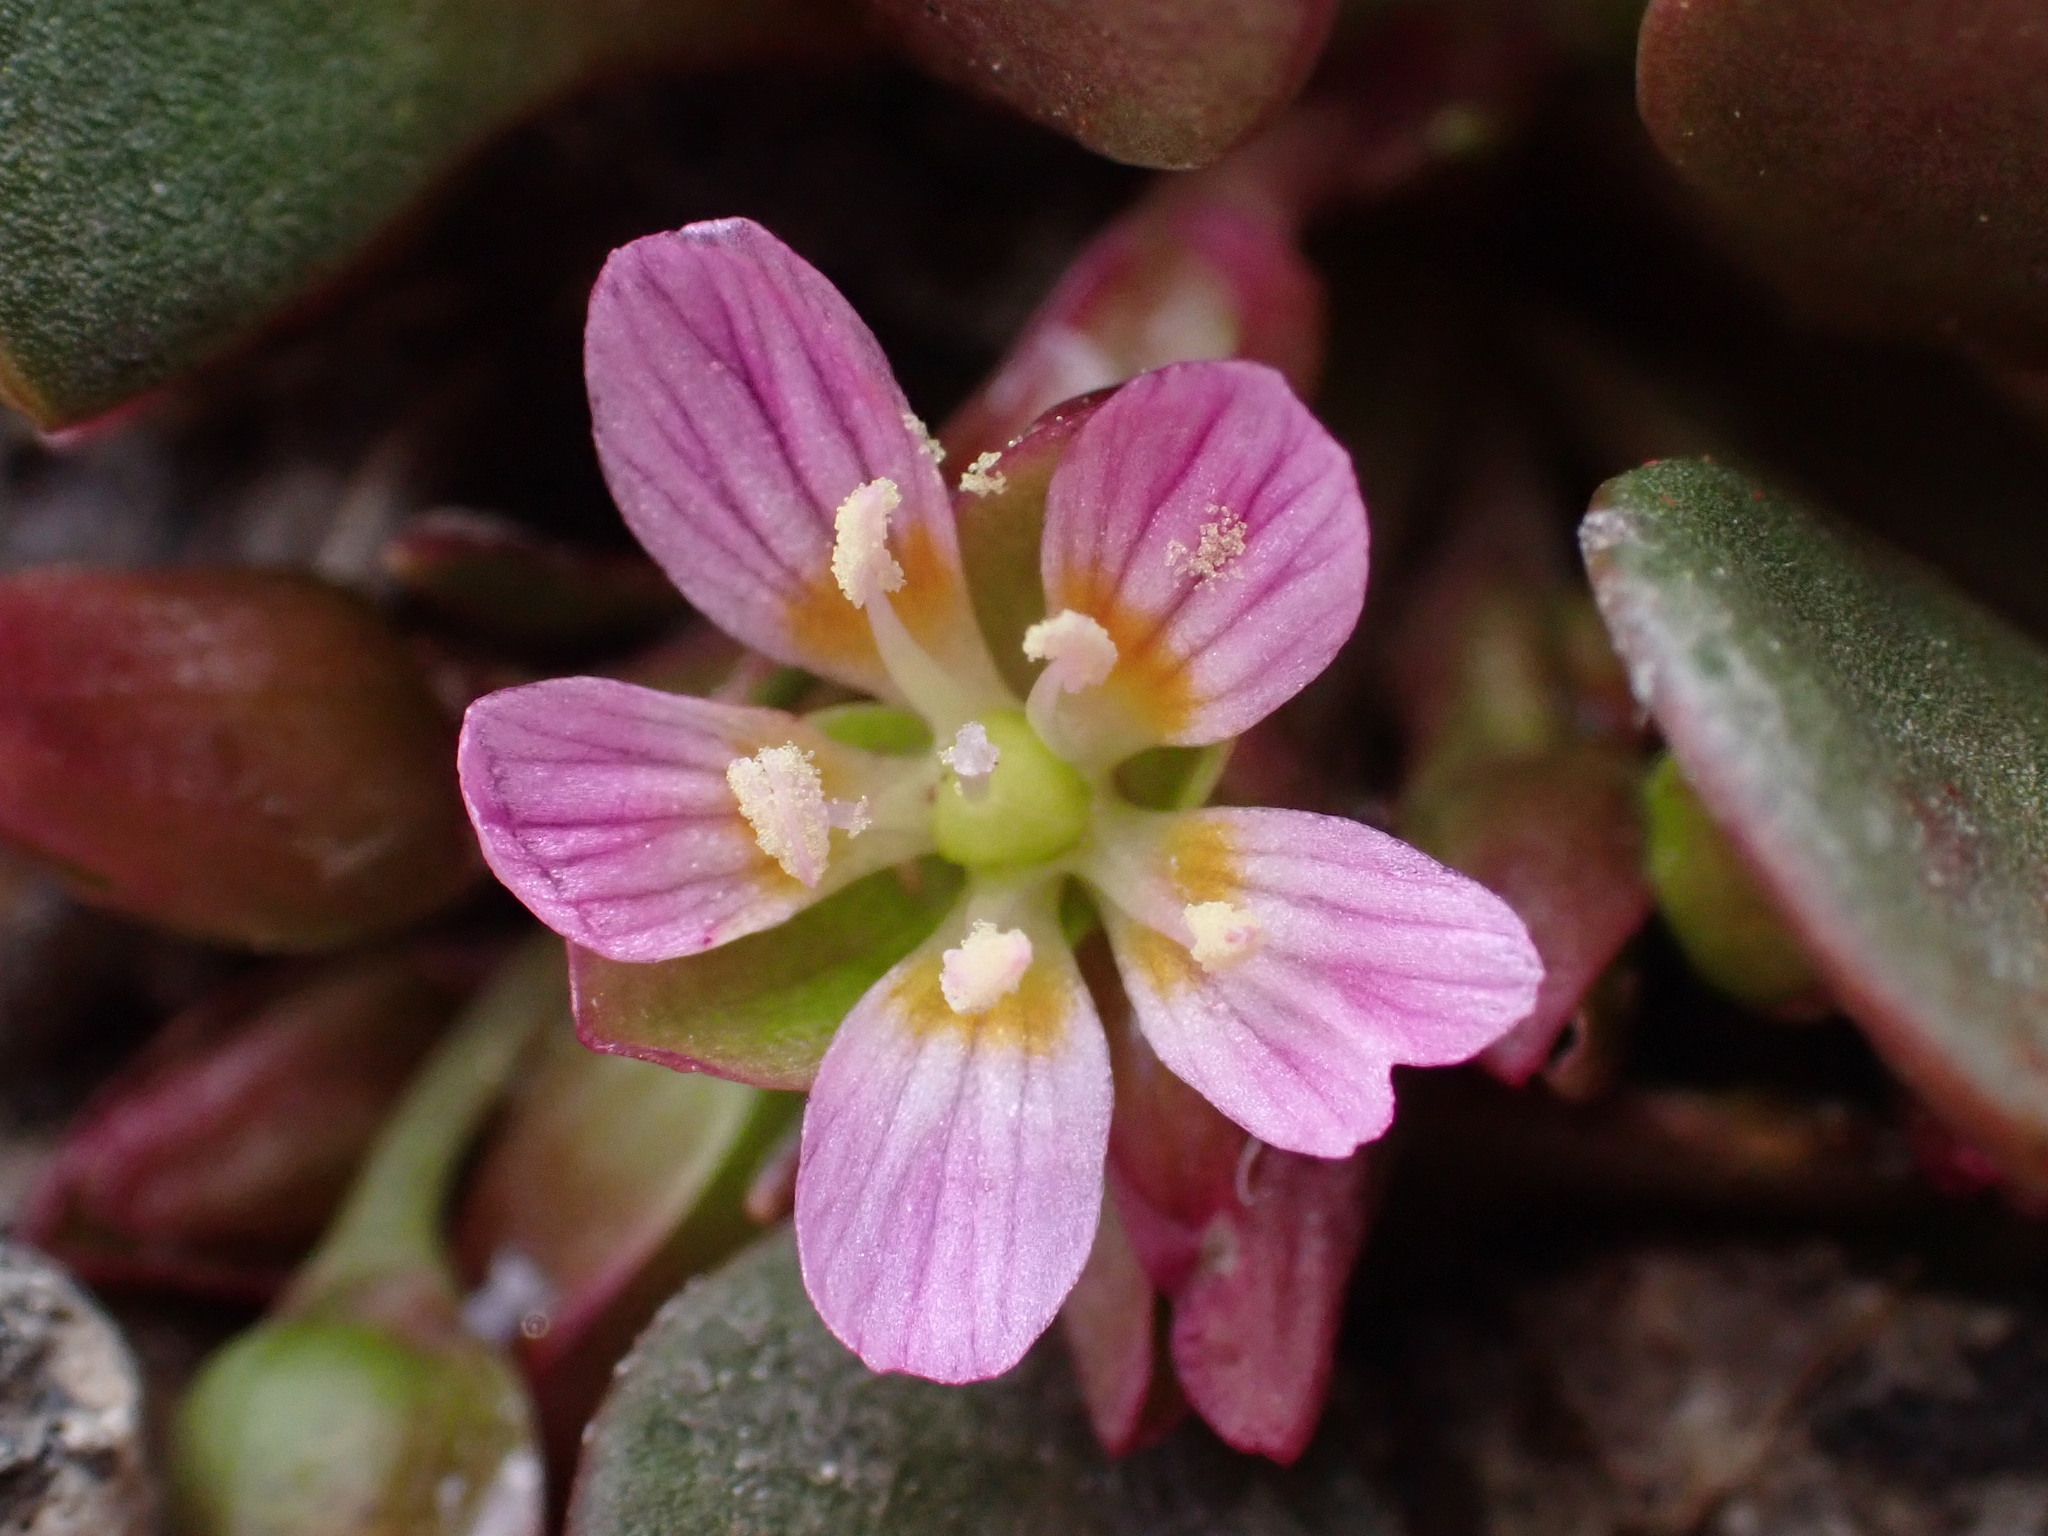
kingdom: Plantae
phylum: Tracheophyta
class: Magnoliopsida
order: Caryophyllales
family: Montiaceae
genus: Claytonia
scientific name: Claytonia megarhiza
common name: Alpine spring beauty
